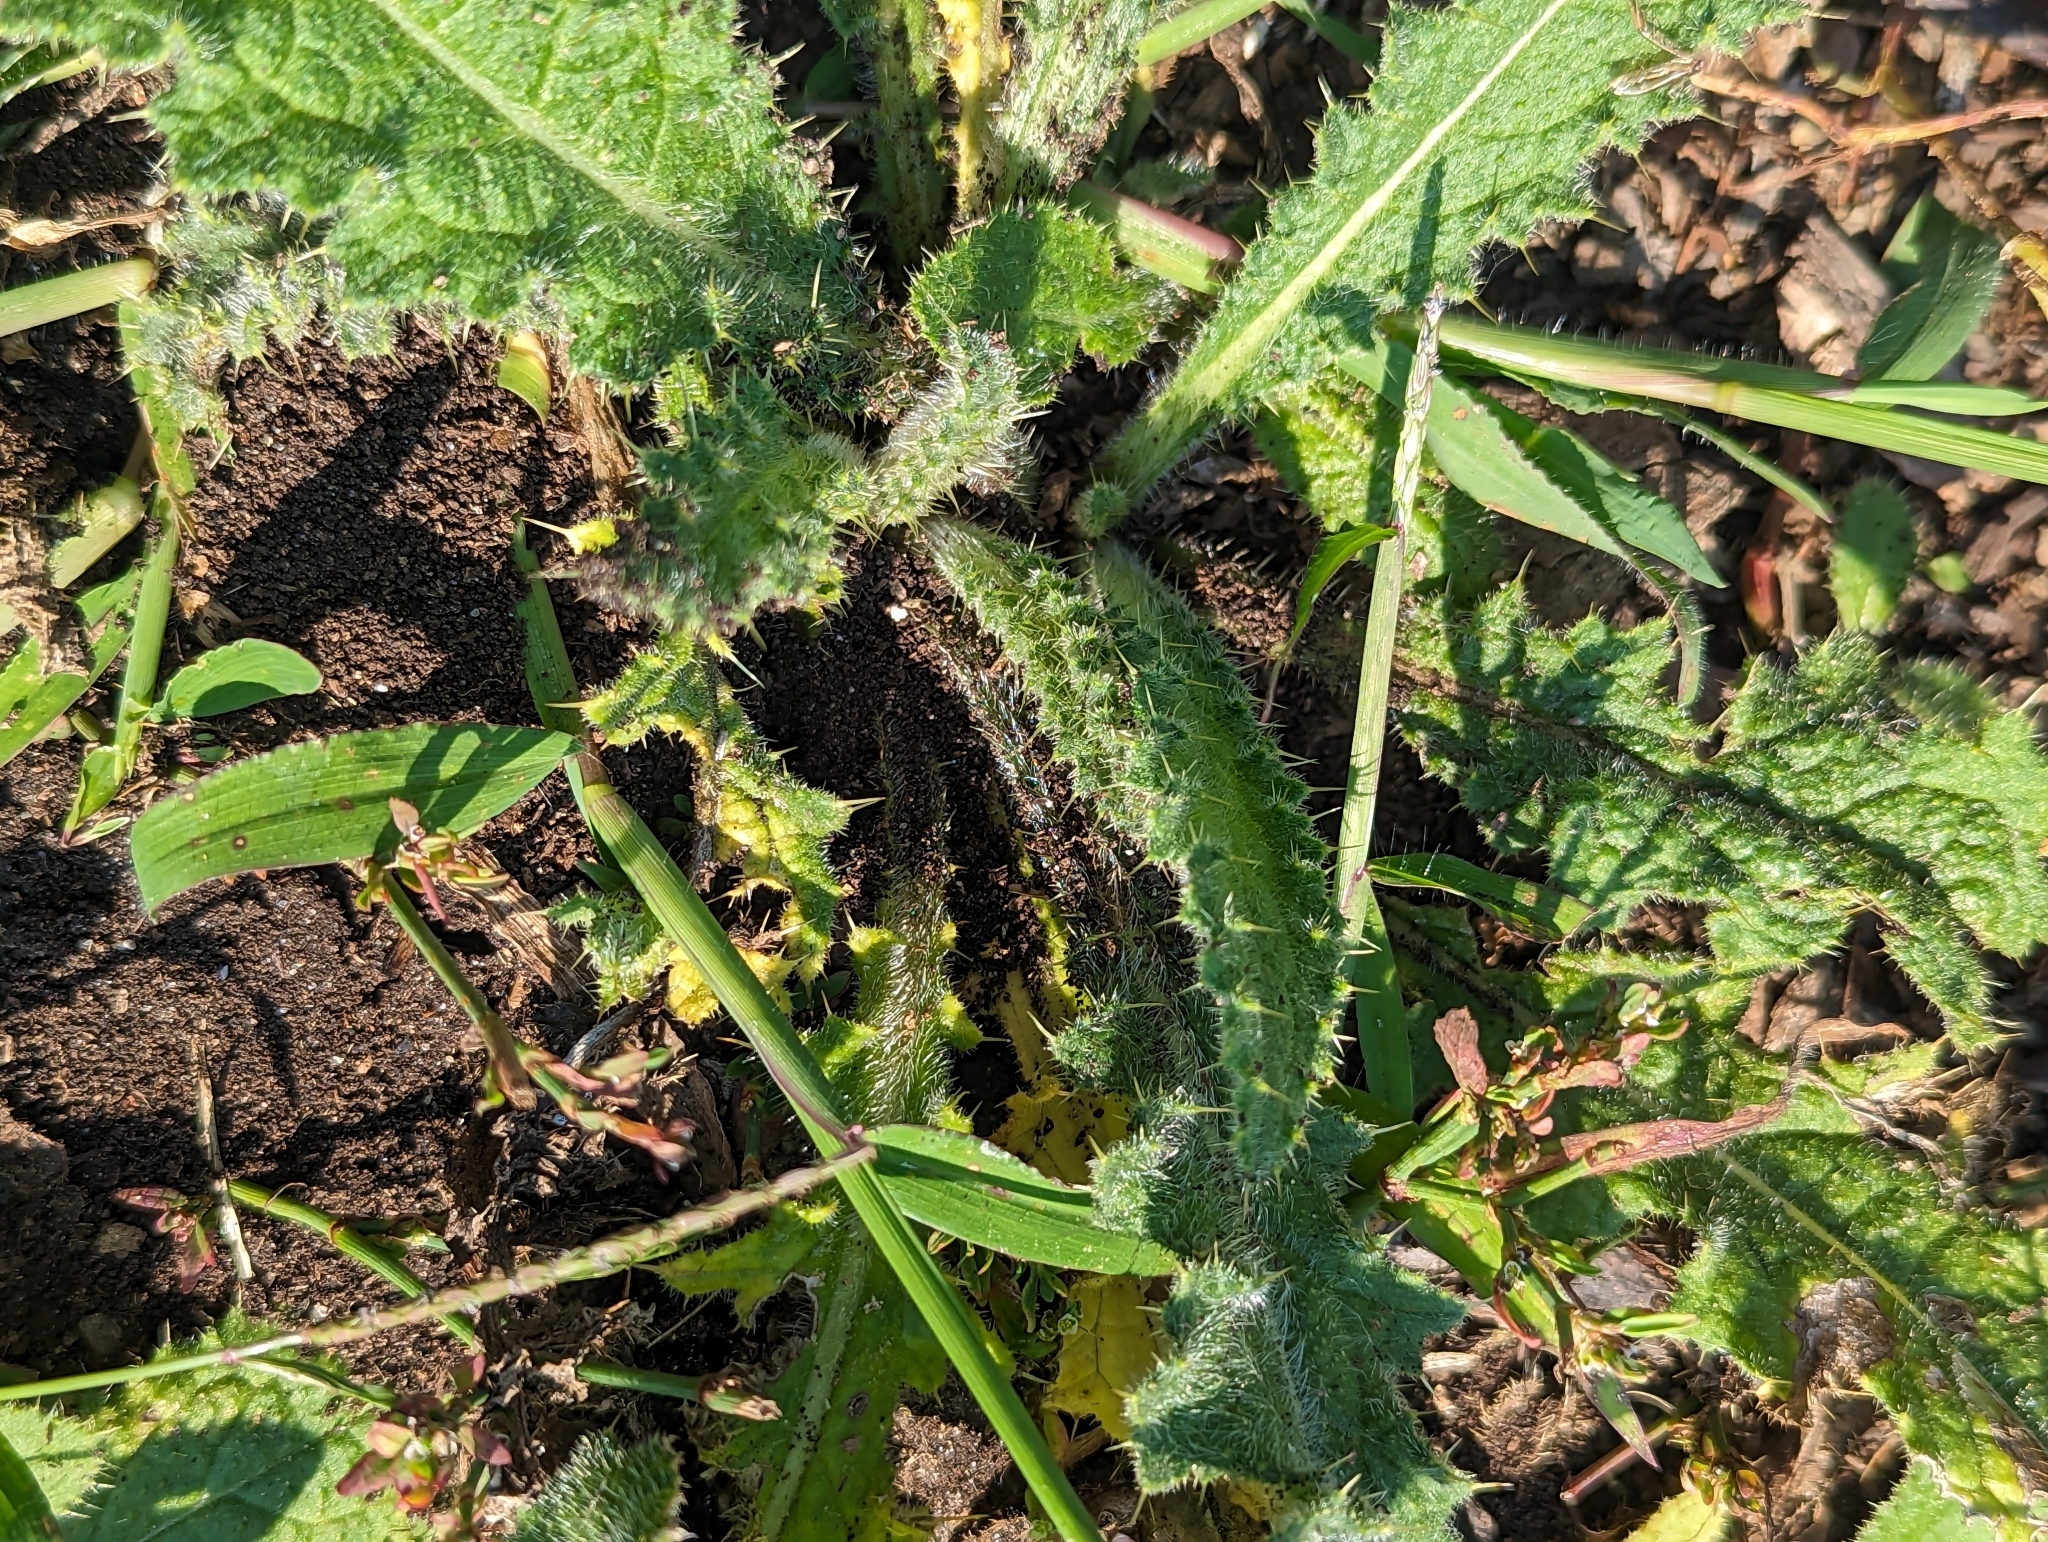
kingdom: Plantae
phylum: Tracheophyta
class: Magnoliopsida
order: Asterales
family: Asteraceae
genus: Cirsium
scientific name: Cirsium vulgare
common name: Bull thistle
